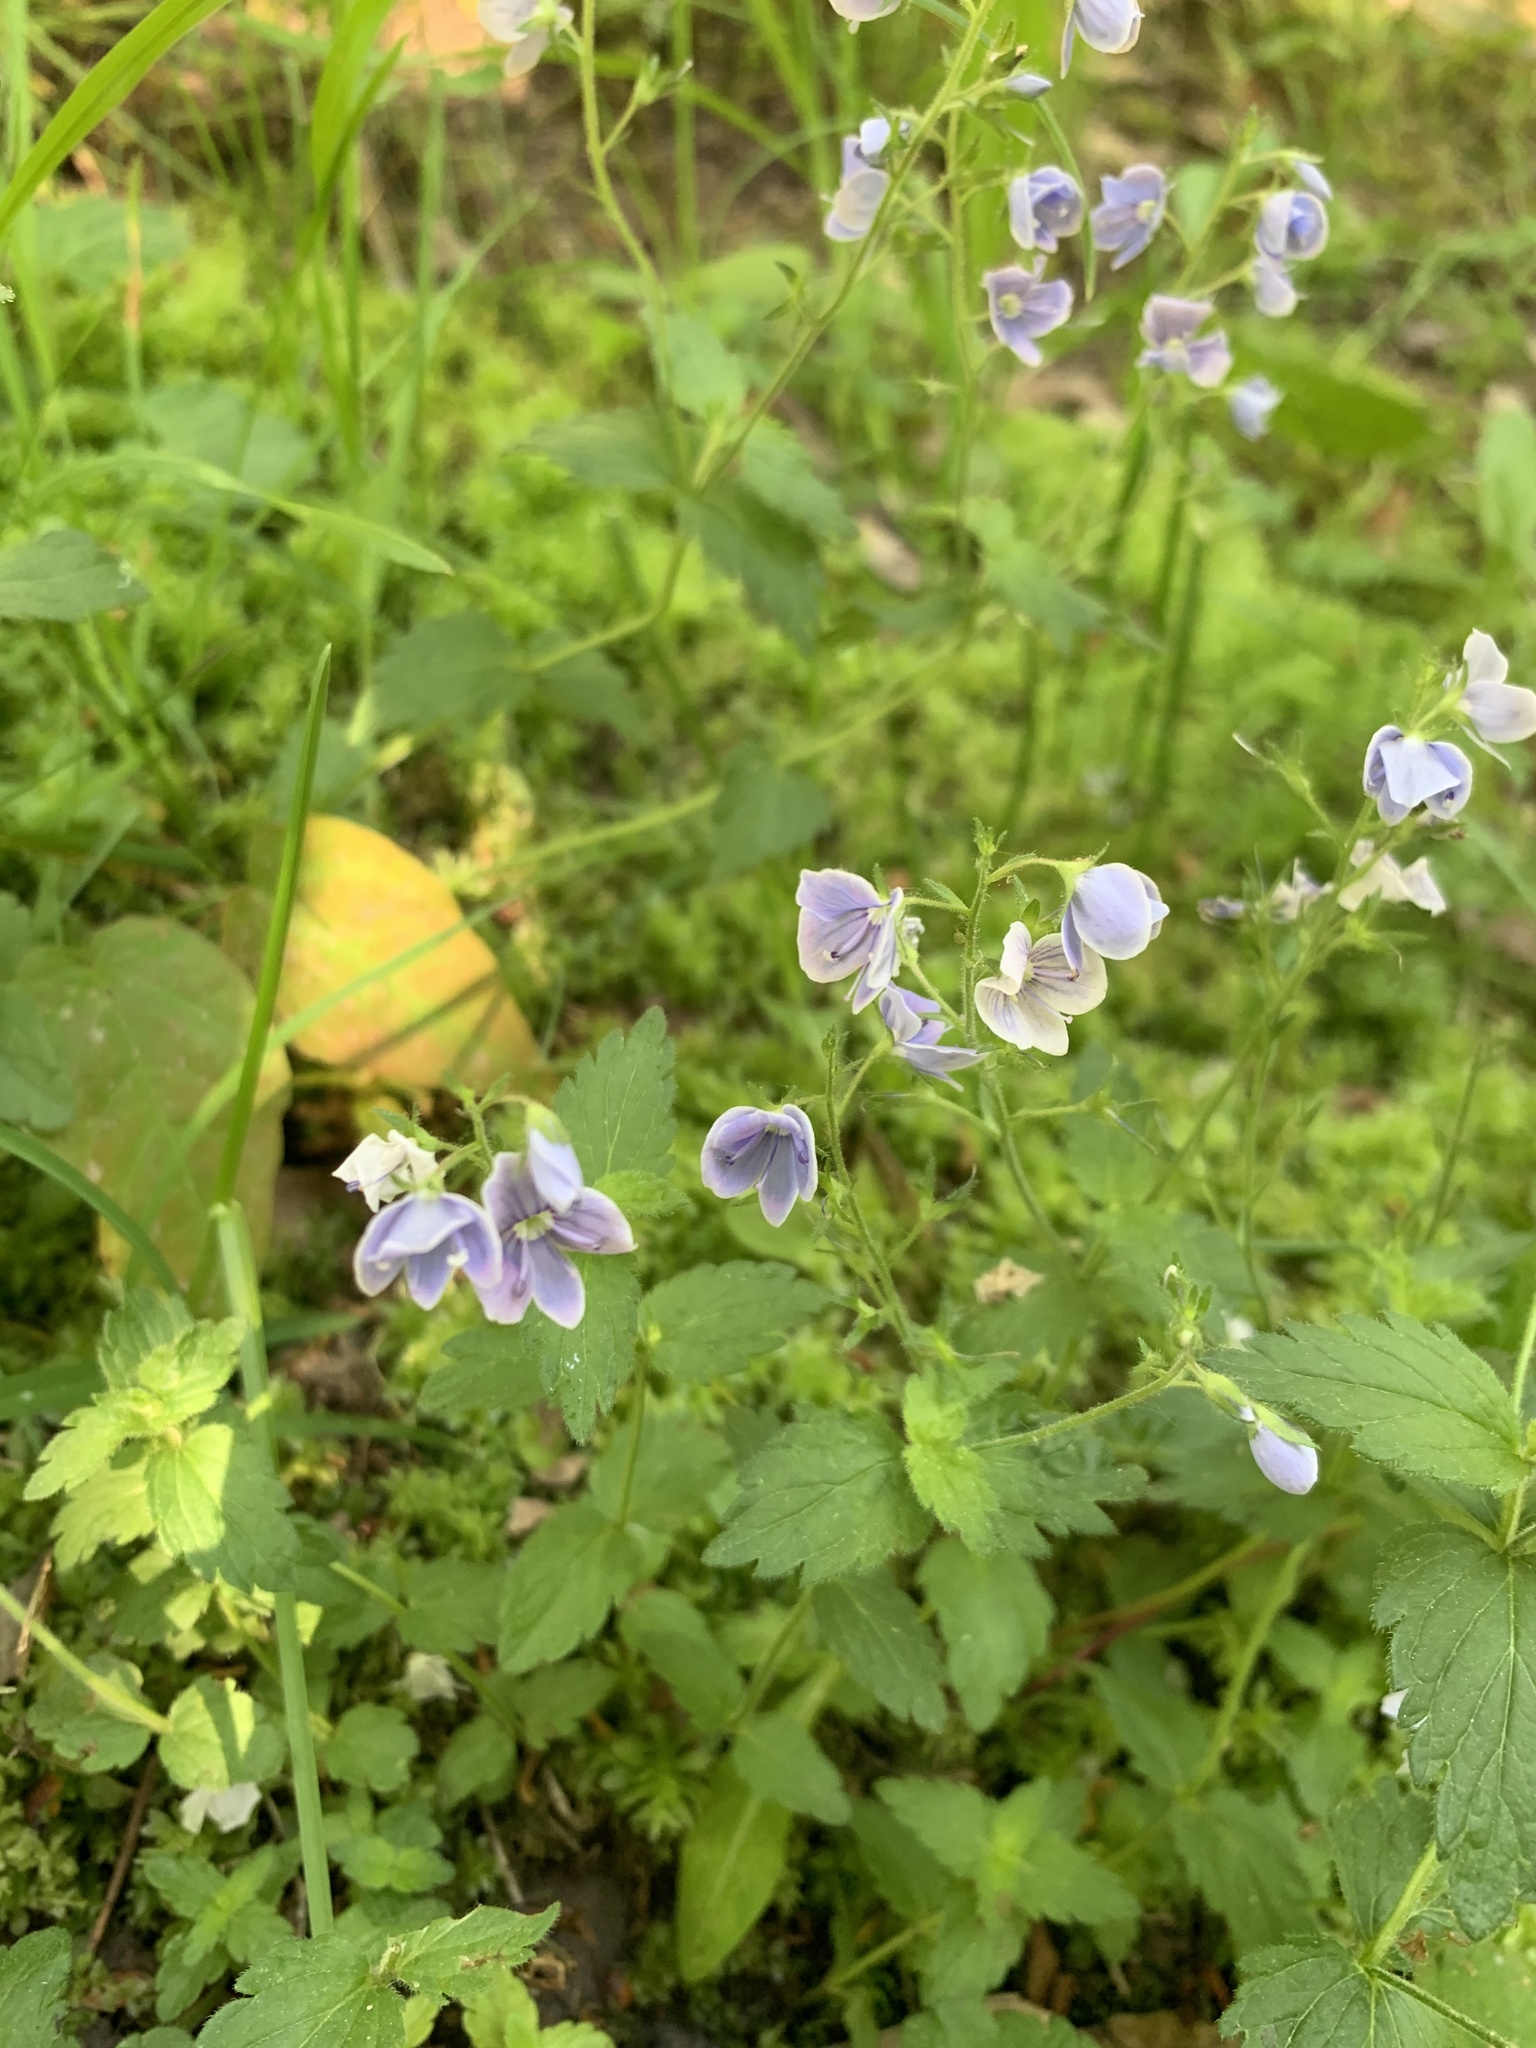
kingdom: Plantae
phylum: Tracheophyta
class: Magnoliopsida
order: Lamiales
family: Plantaginaceae
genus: Veronica
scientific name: Veronica chamaedrys
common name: Germander speedwell
